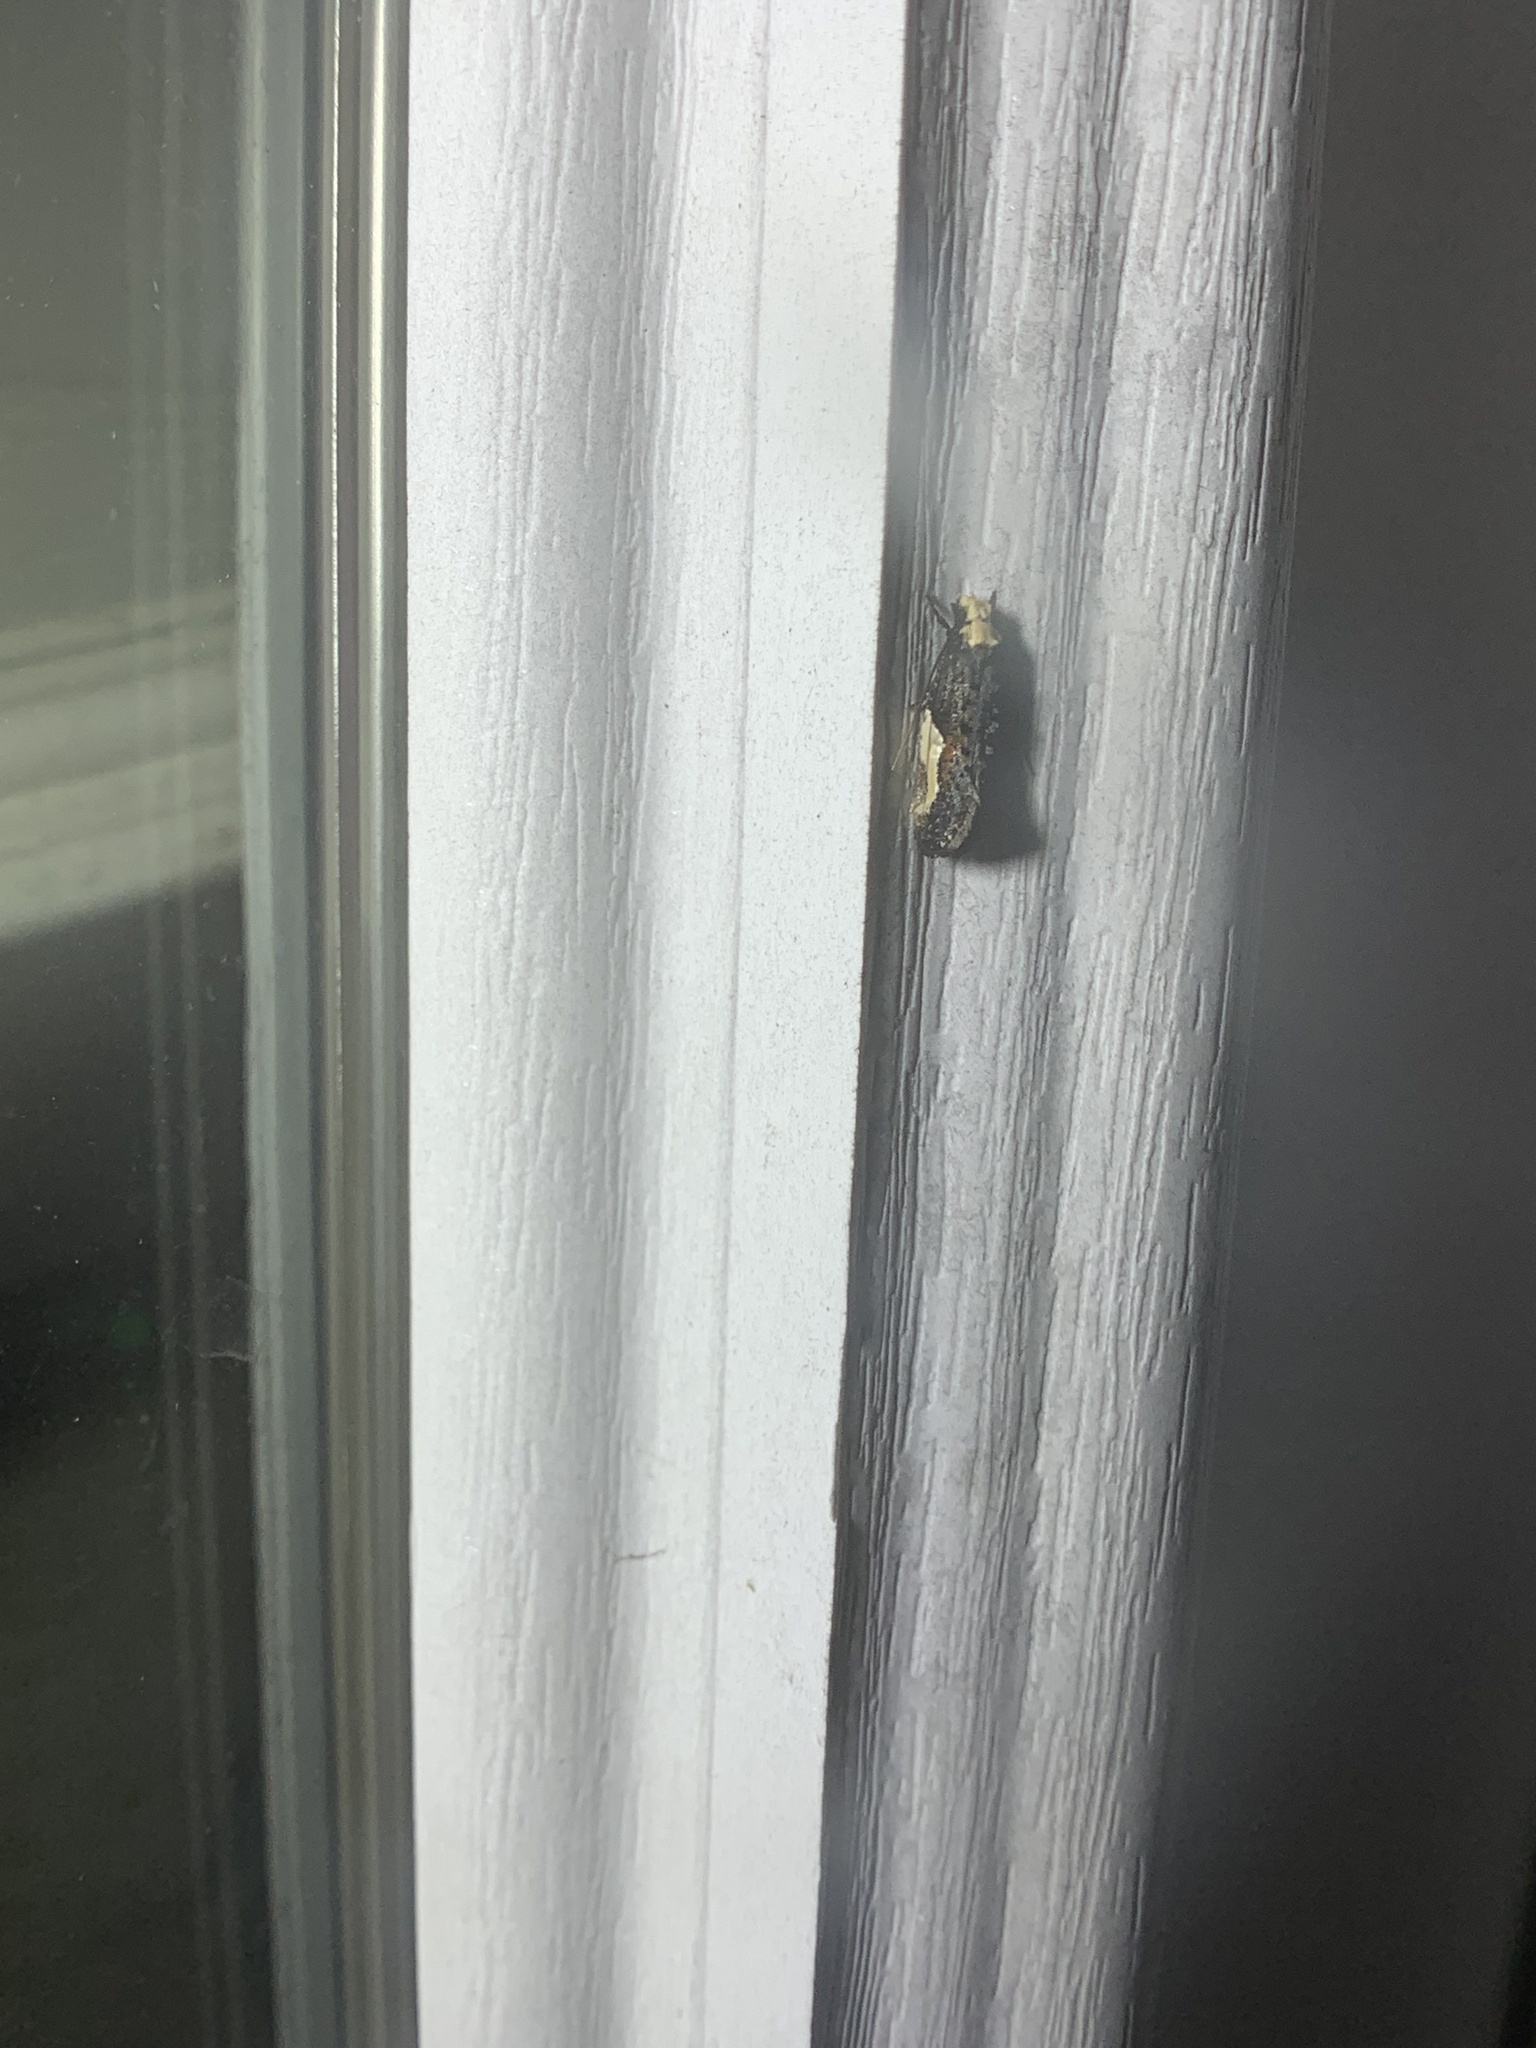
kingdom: Animalia
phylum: Arthropoda
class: Insecta
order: Lepidoptera
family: Tineidae
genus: Monopis
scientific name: Monopis longella
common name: Pavlovski's monopis moth
